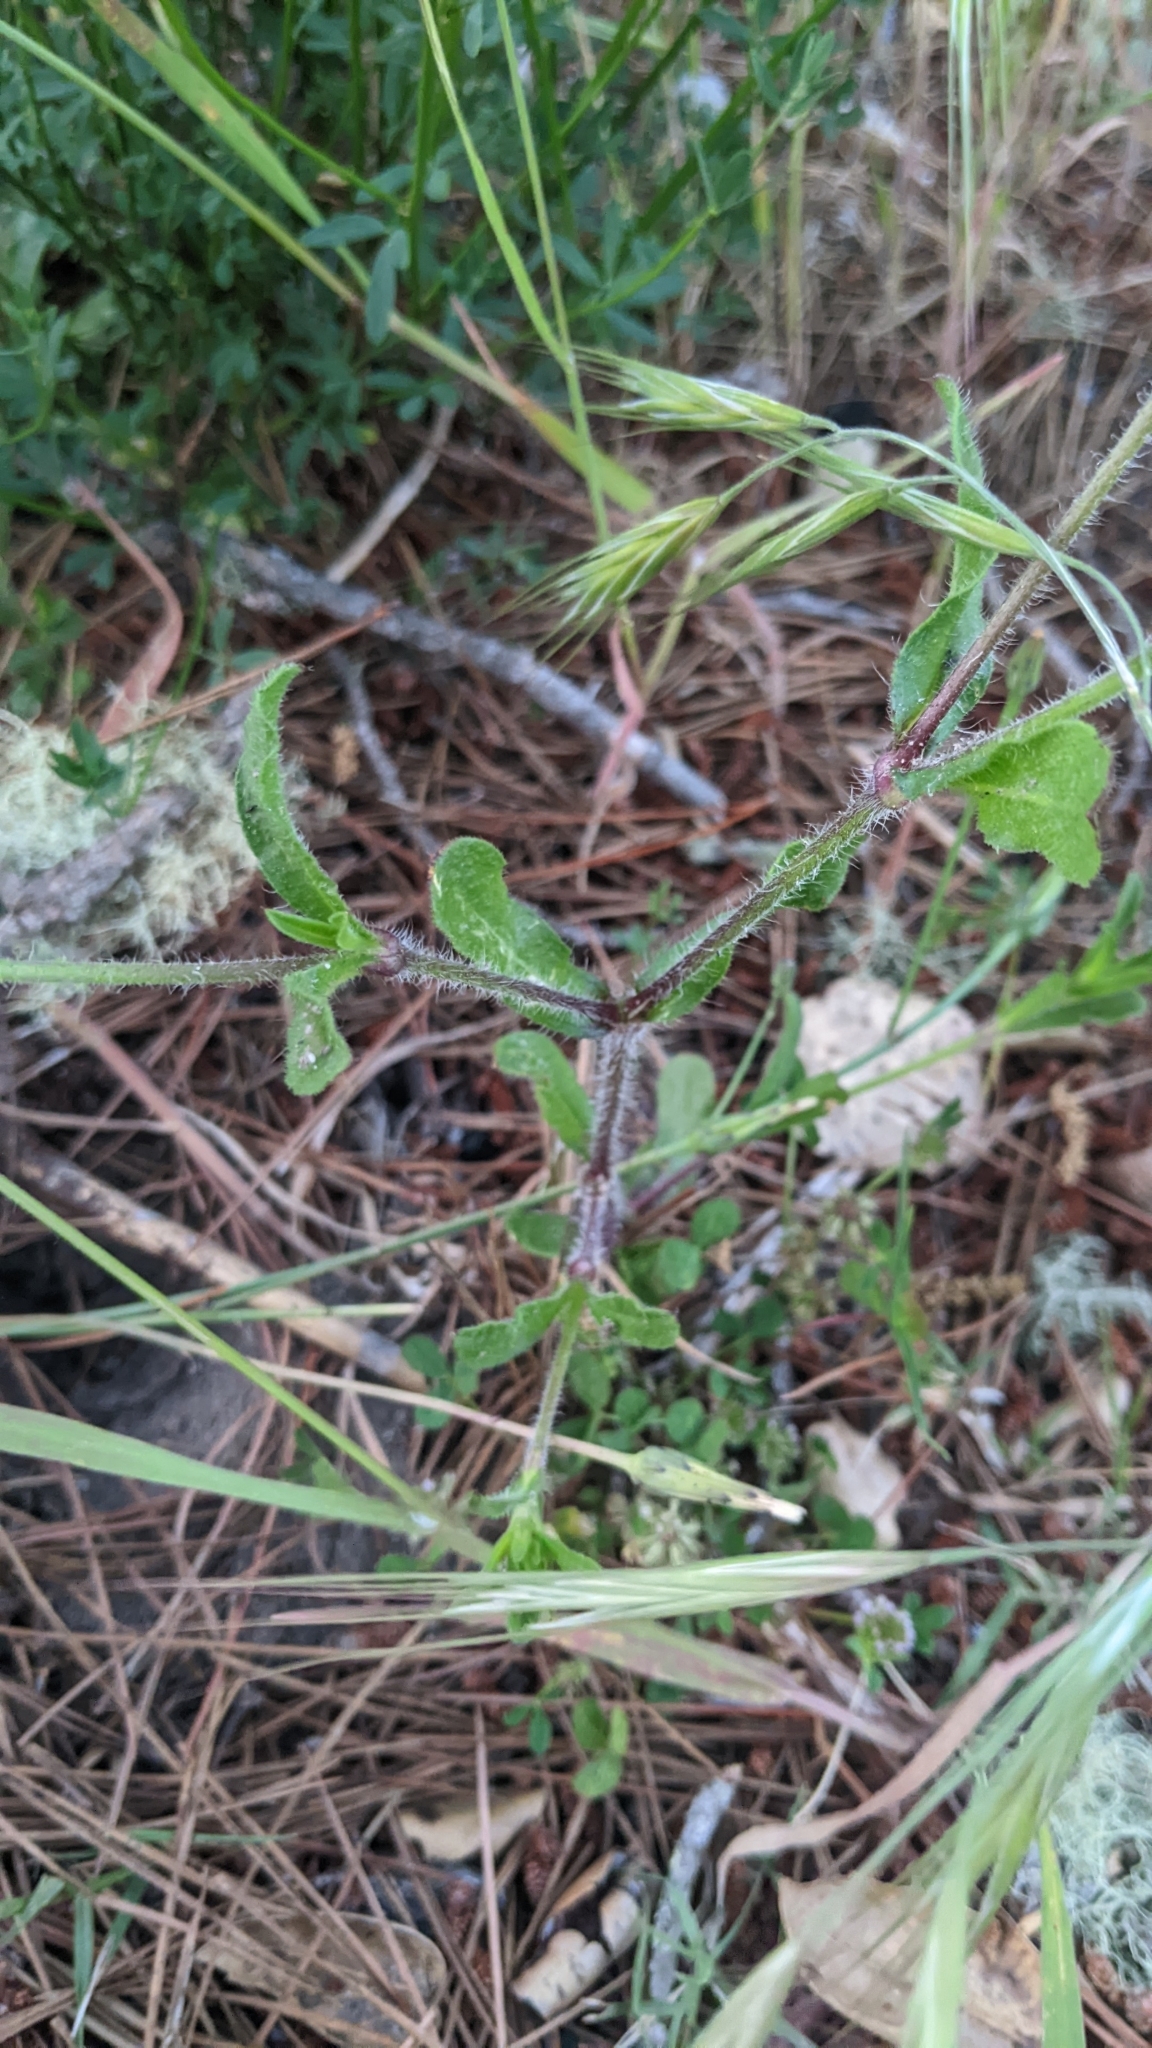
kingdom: Plantae
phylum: Tracheophyta
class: Magnoliopsida
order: Caryophyllales
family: Caryophyllaceae
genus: Silene
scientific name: Silene gallica
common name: Small-flowered catchfly
